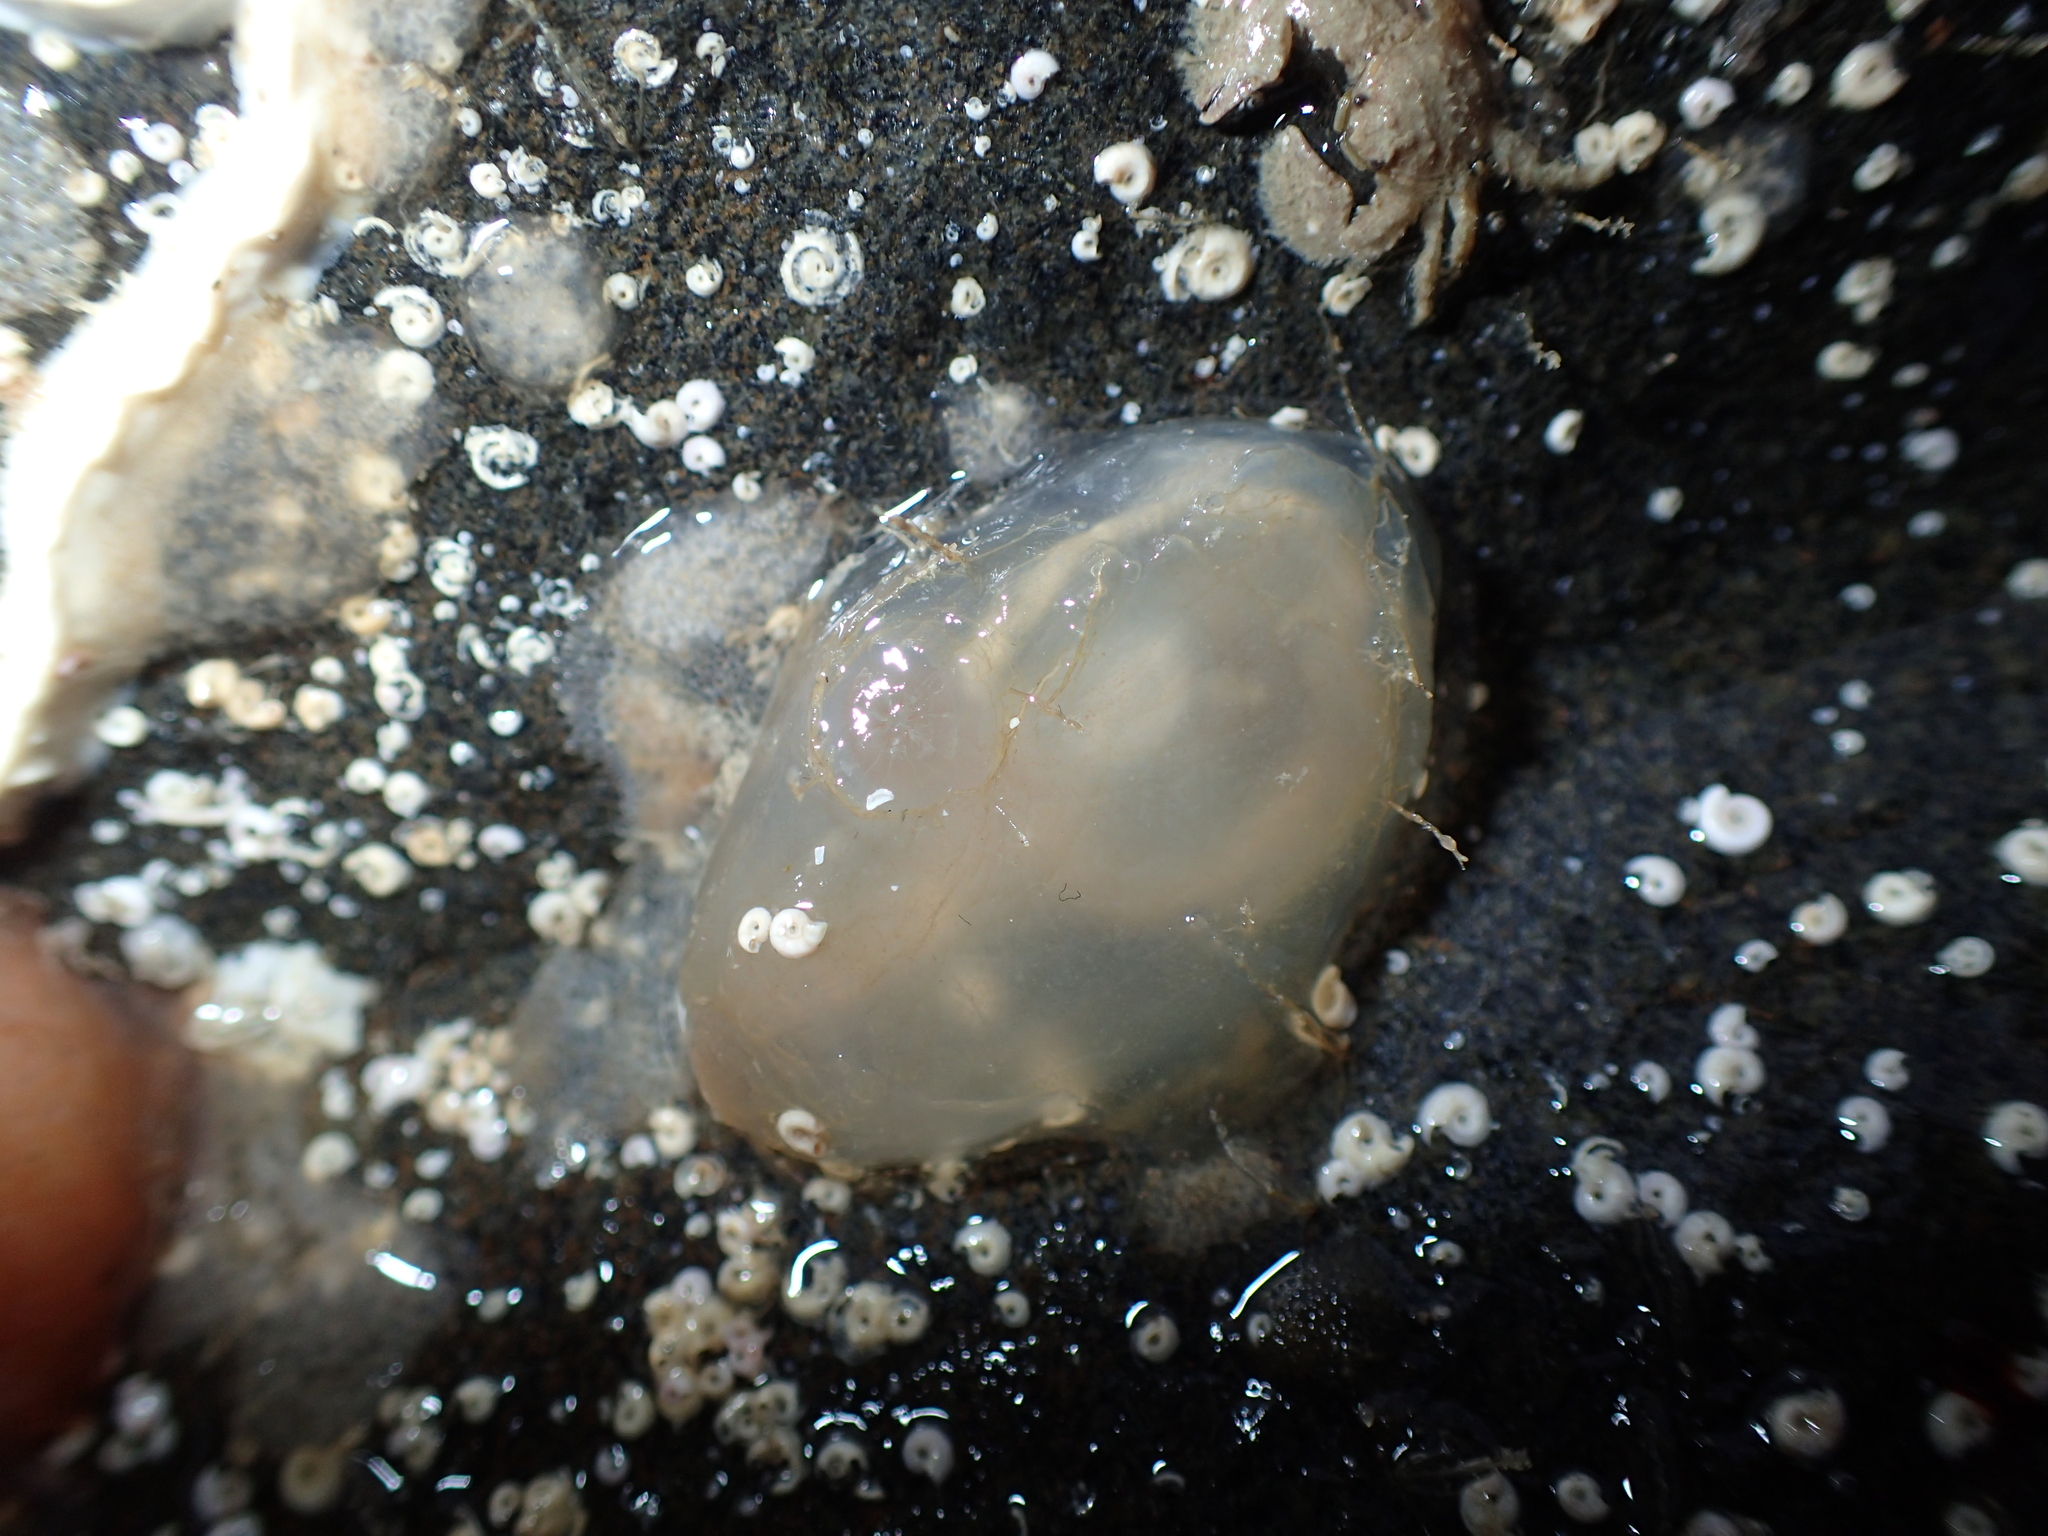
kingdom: Animalia
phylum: Chordata
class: Ascidiacea
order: Phlebobranchia
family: Corellidae
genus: Corella
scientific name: Corella eumyota
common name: Orange-tipped sea squirt
